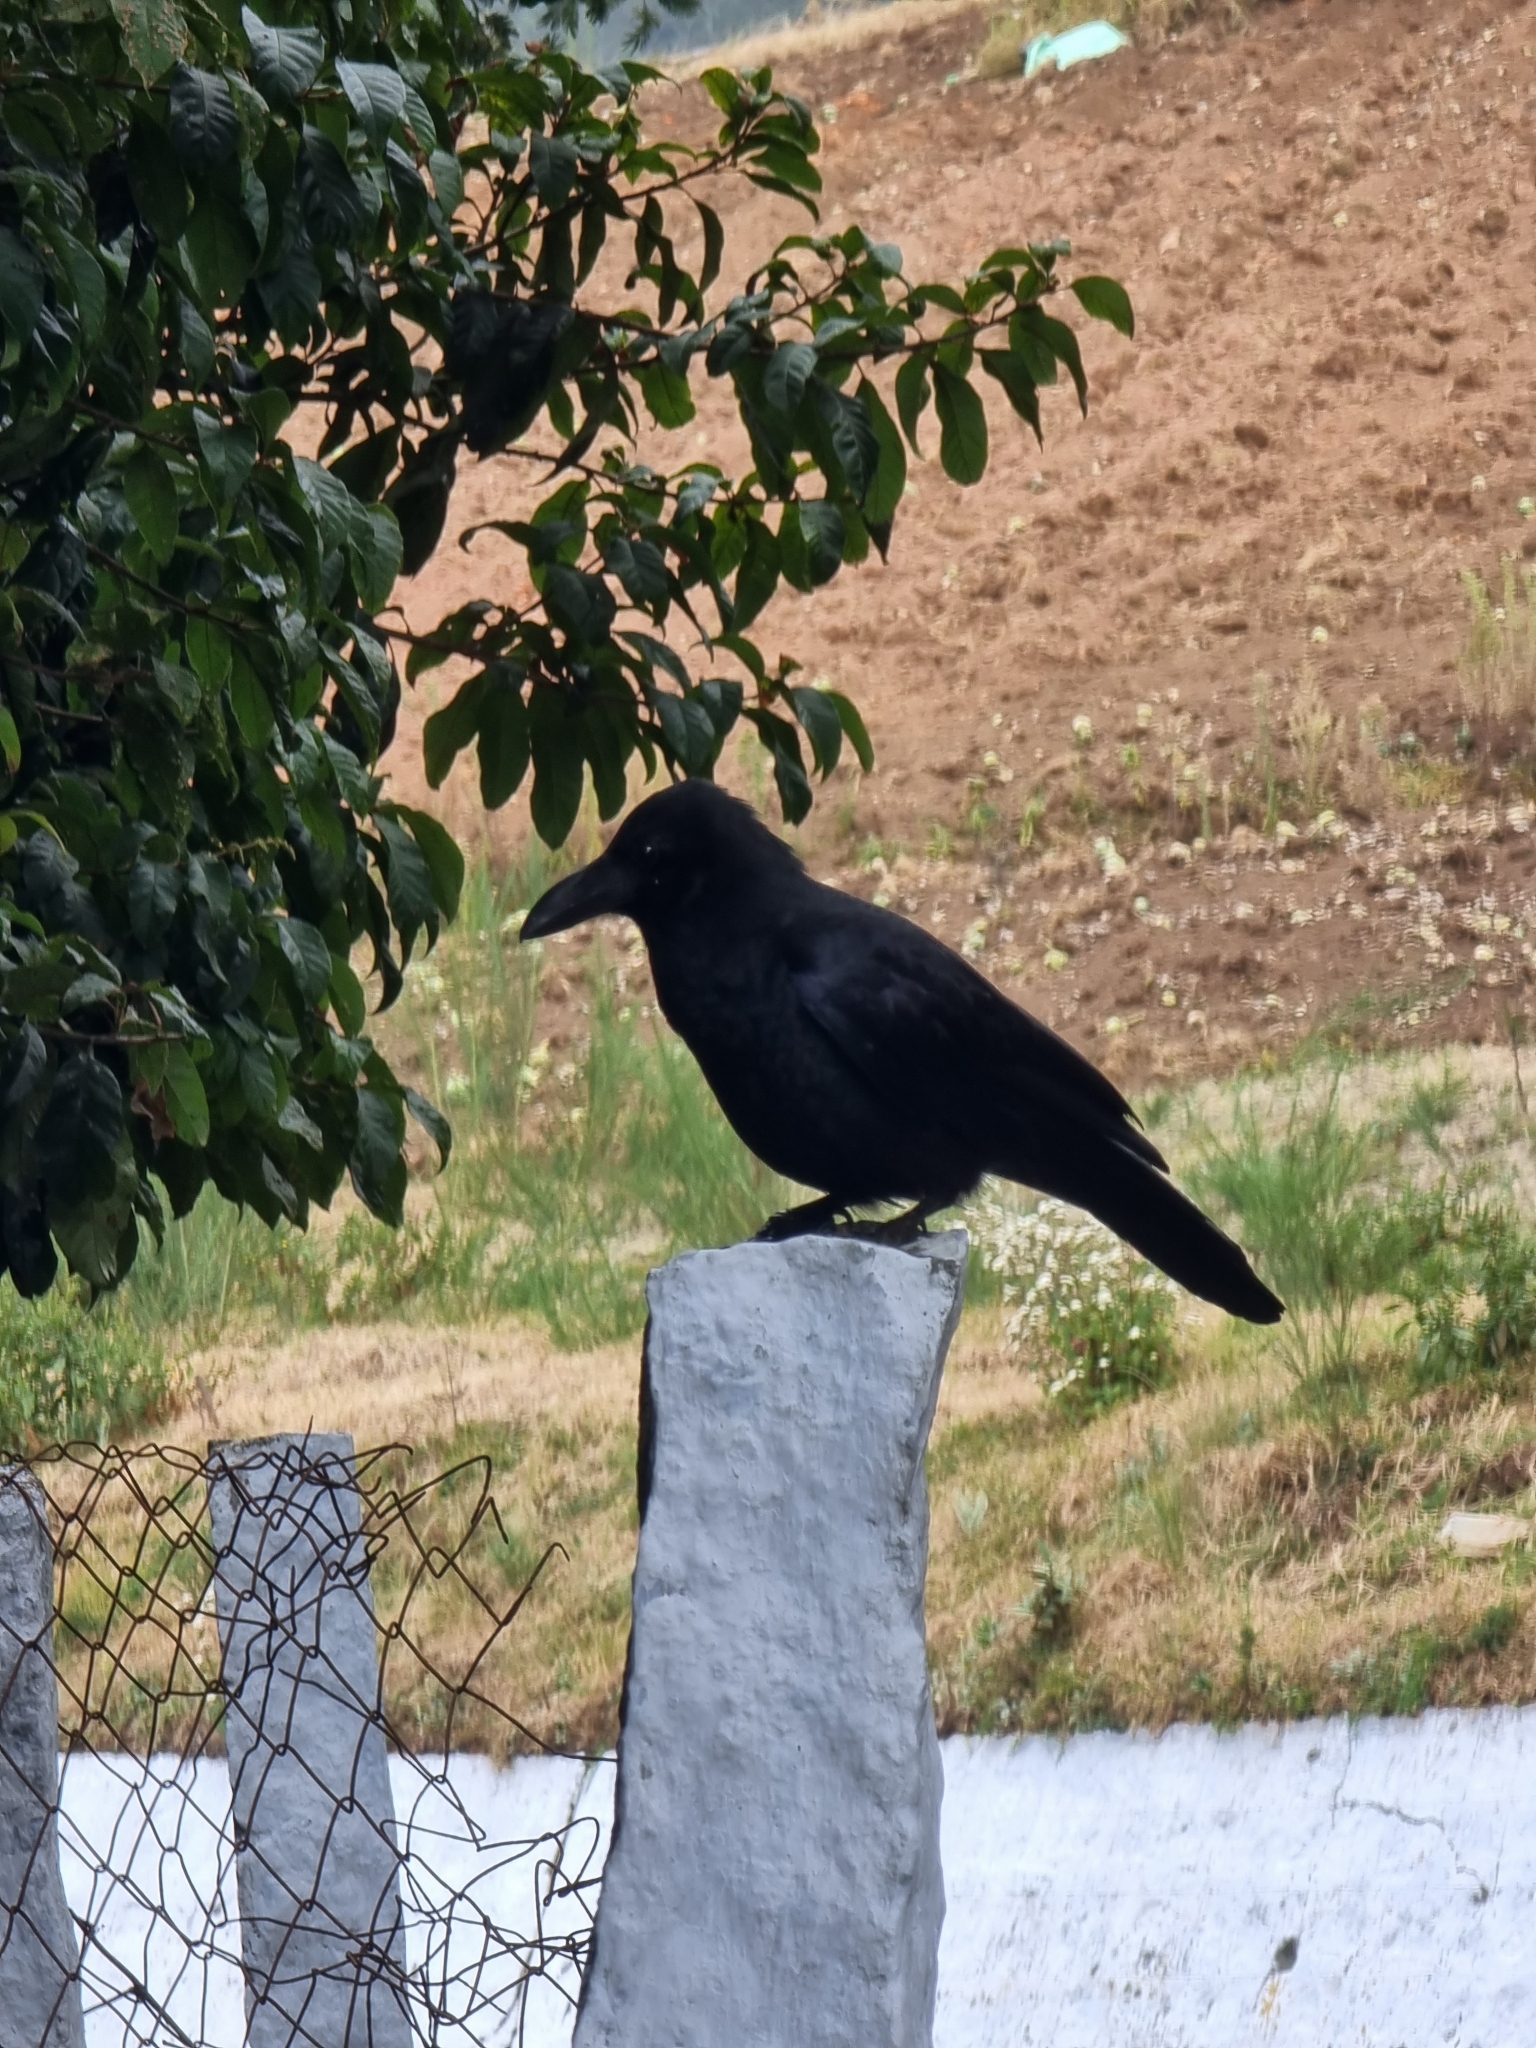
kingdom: Animalia
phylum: Chordata
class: Aves
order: Passeriformes
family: Corvidae
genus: Corvus
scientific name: Corvus macrorhynchos
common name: Large-billed crow
